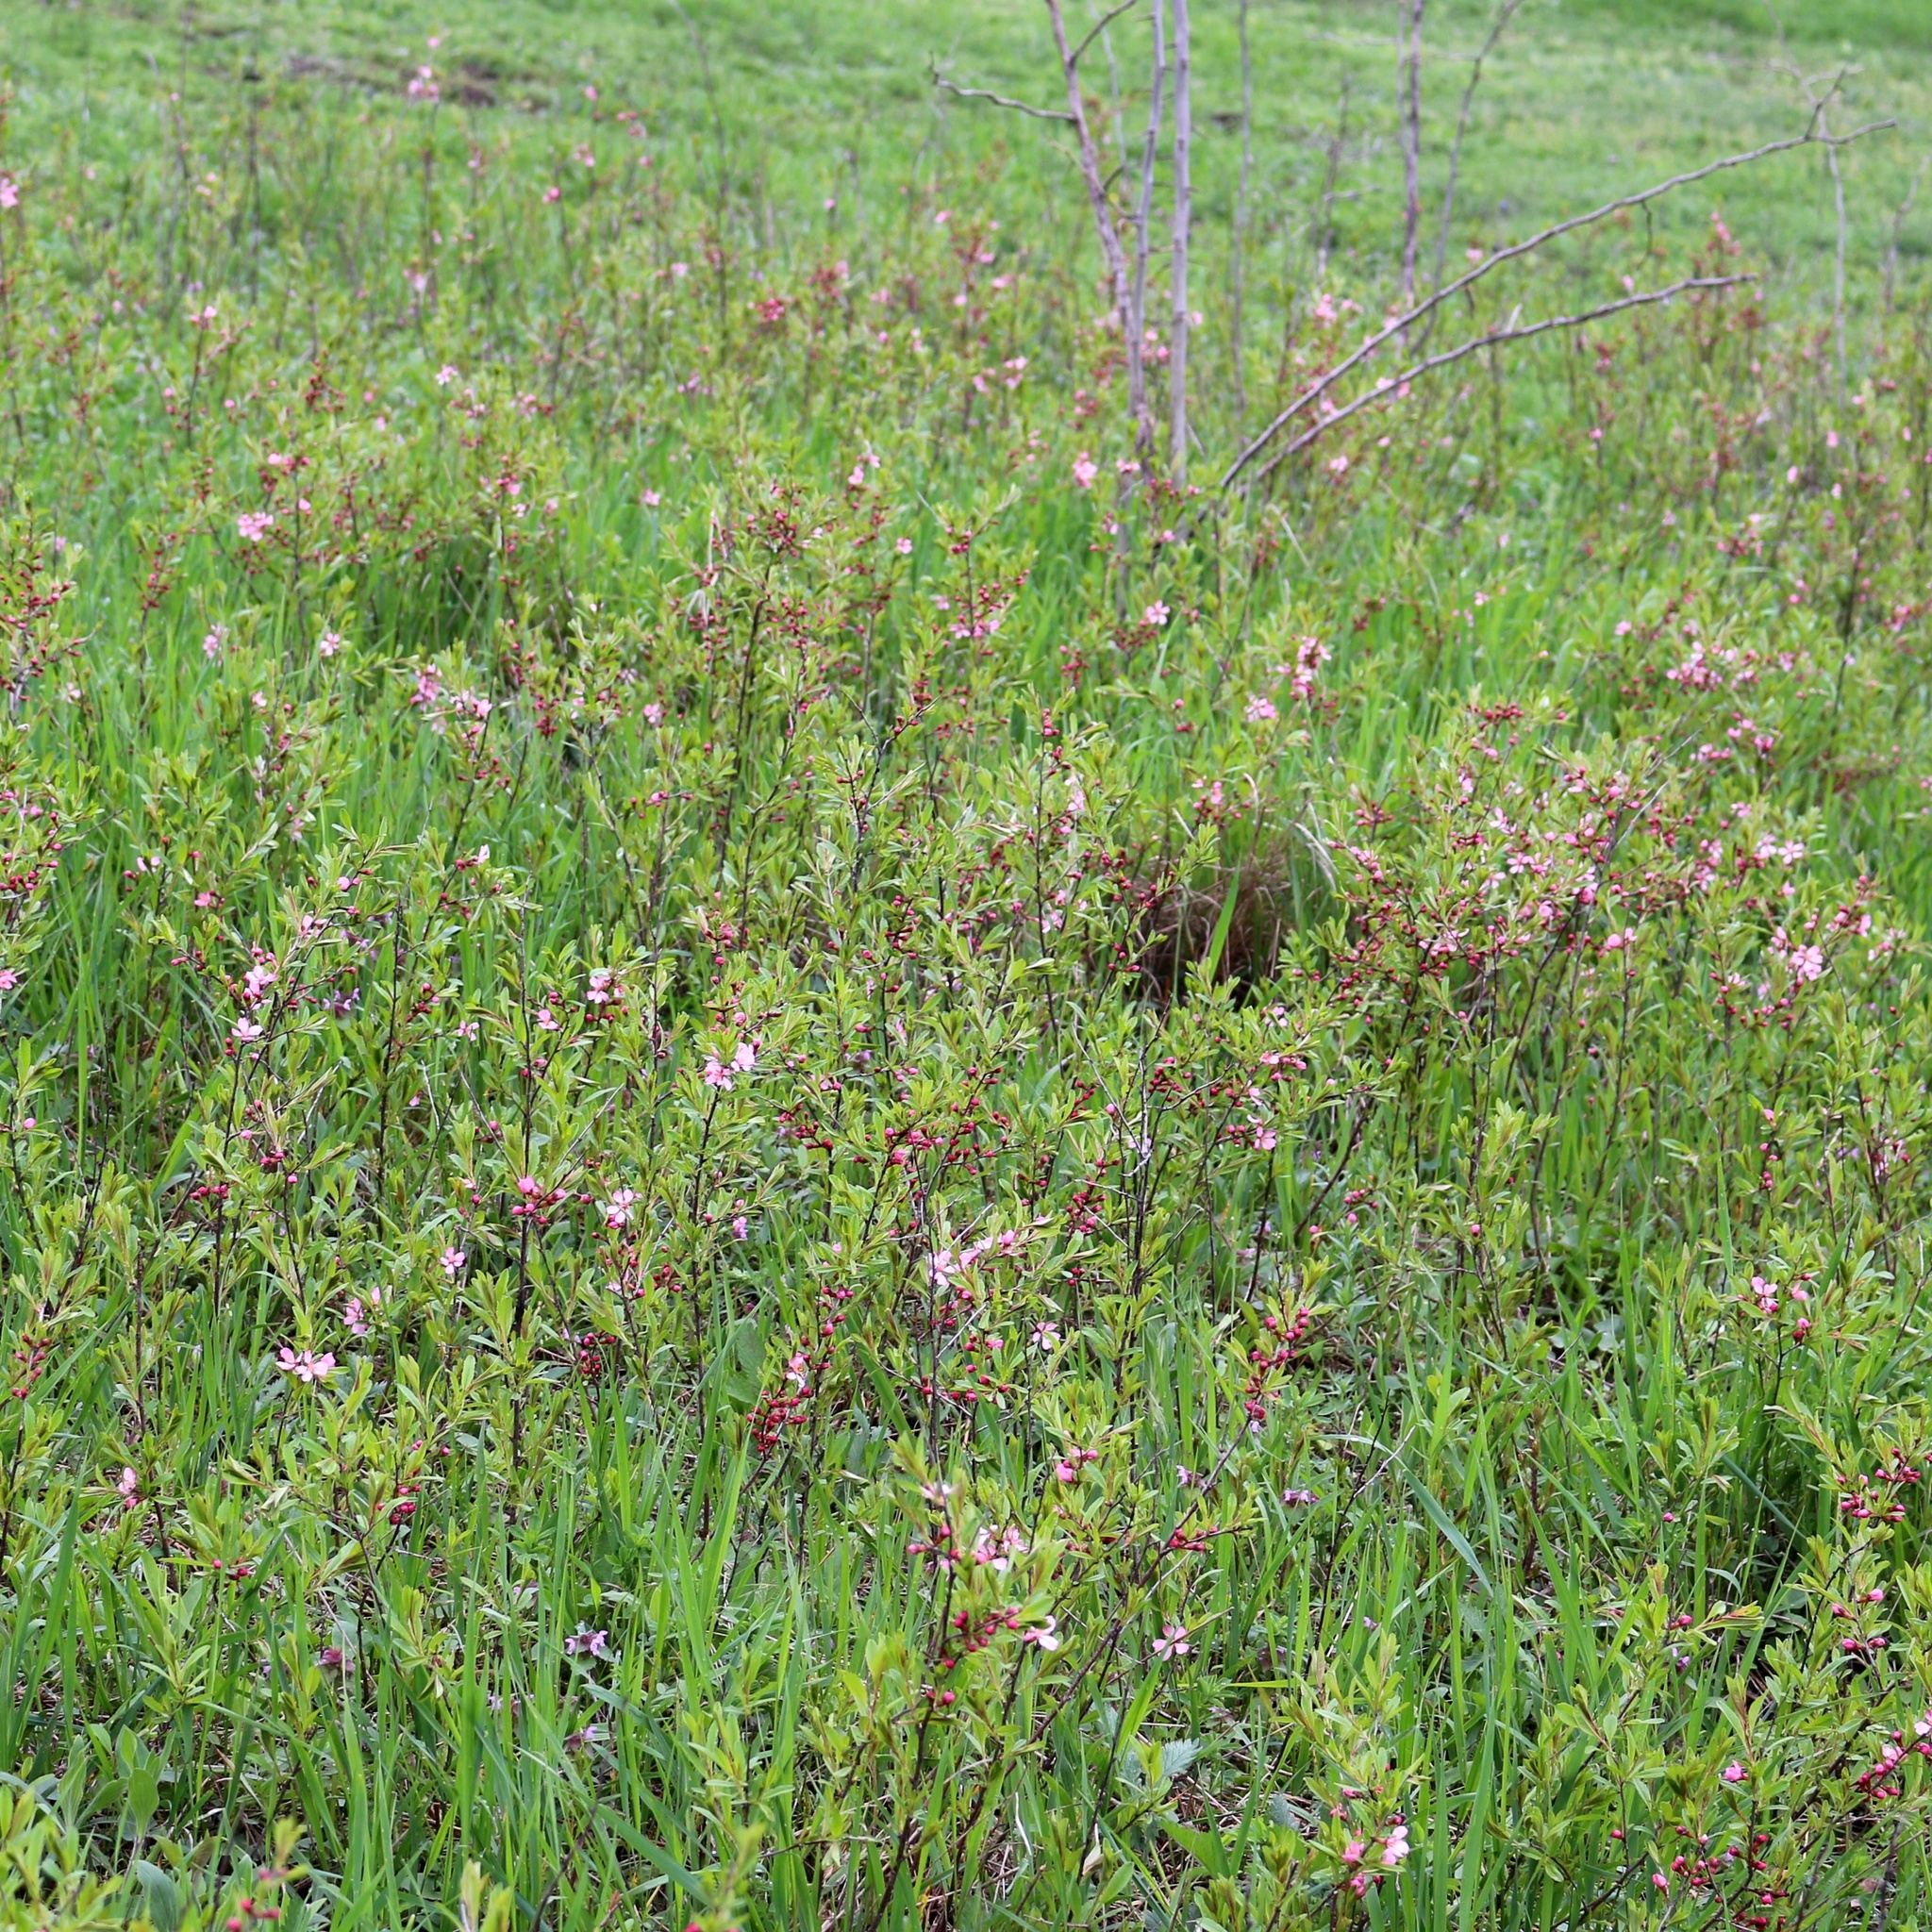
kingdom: Plantae
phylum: Tracheophyta
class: Magnoliopsida
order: Rosales
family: Rosaceae
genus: Prunus
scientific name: Prunus tenella
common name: Dwarf russian almond
